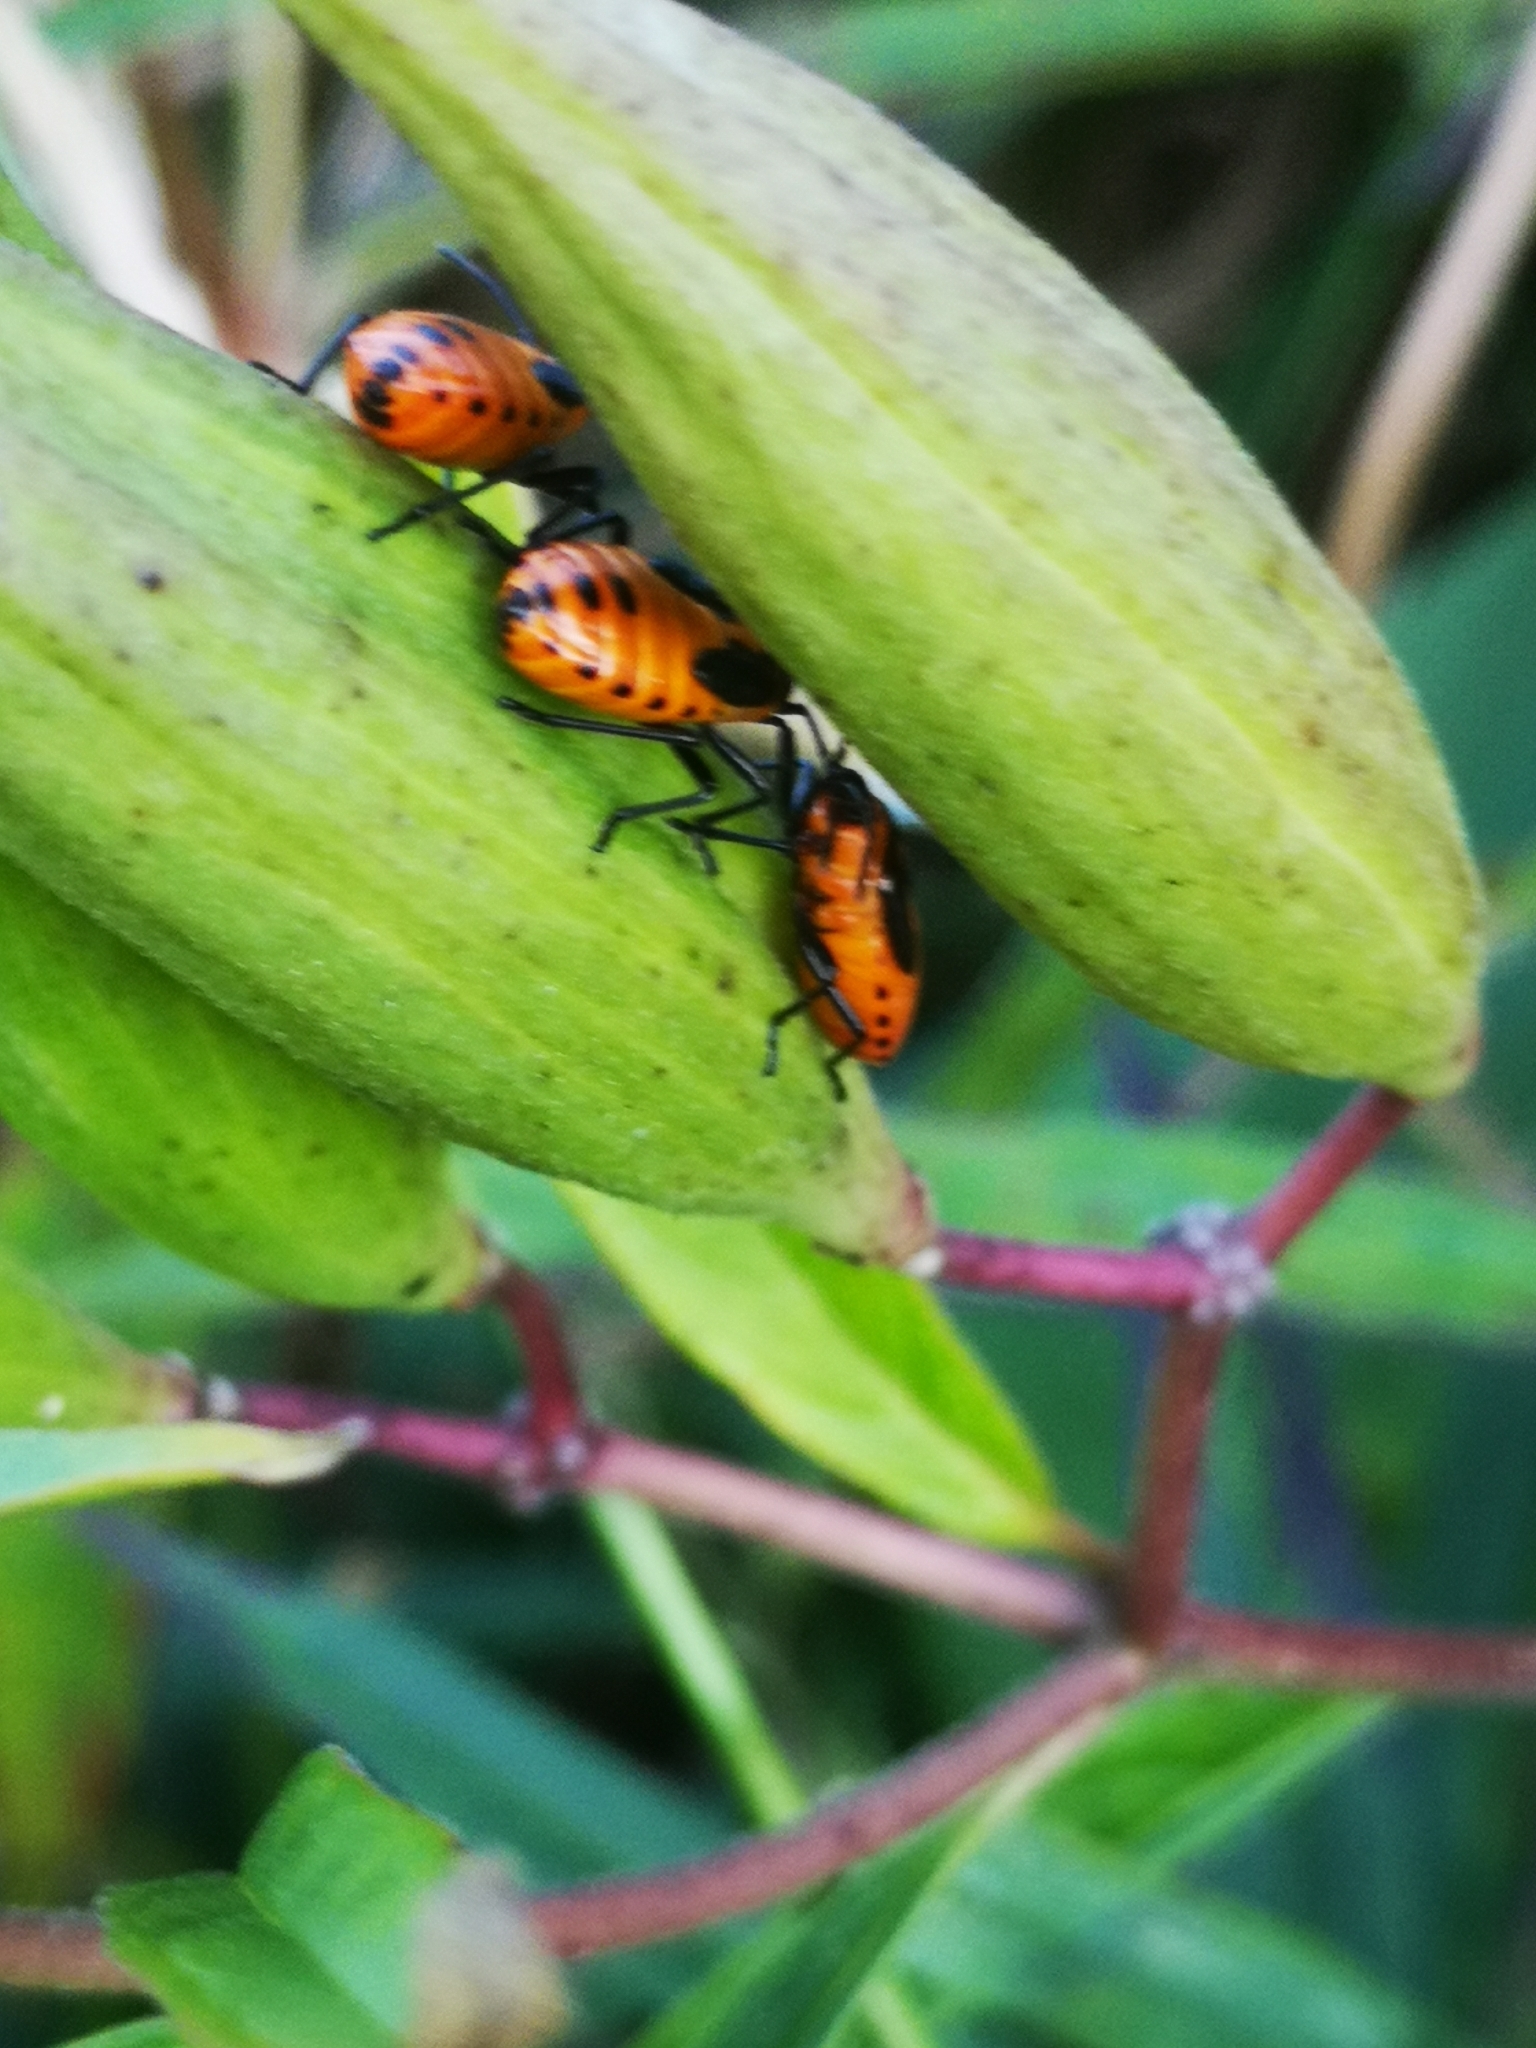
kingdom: Animalia
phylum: Arthropoda
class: Insecta
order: Hemiptera
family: Lygaeidae
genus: Oncopeltus
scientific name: Oncopeltus fasciatus
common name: Large milkweed bug
